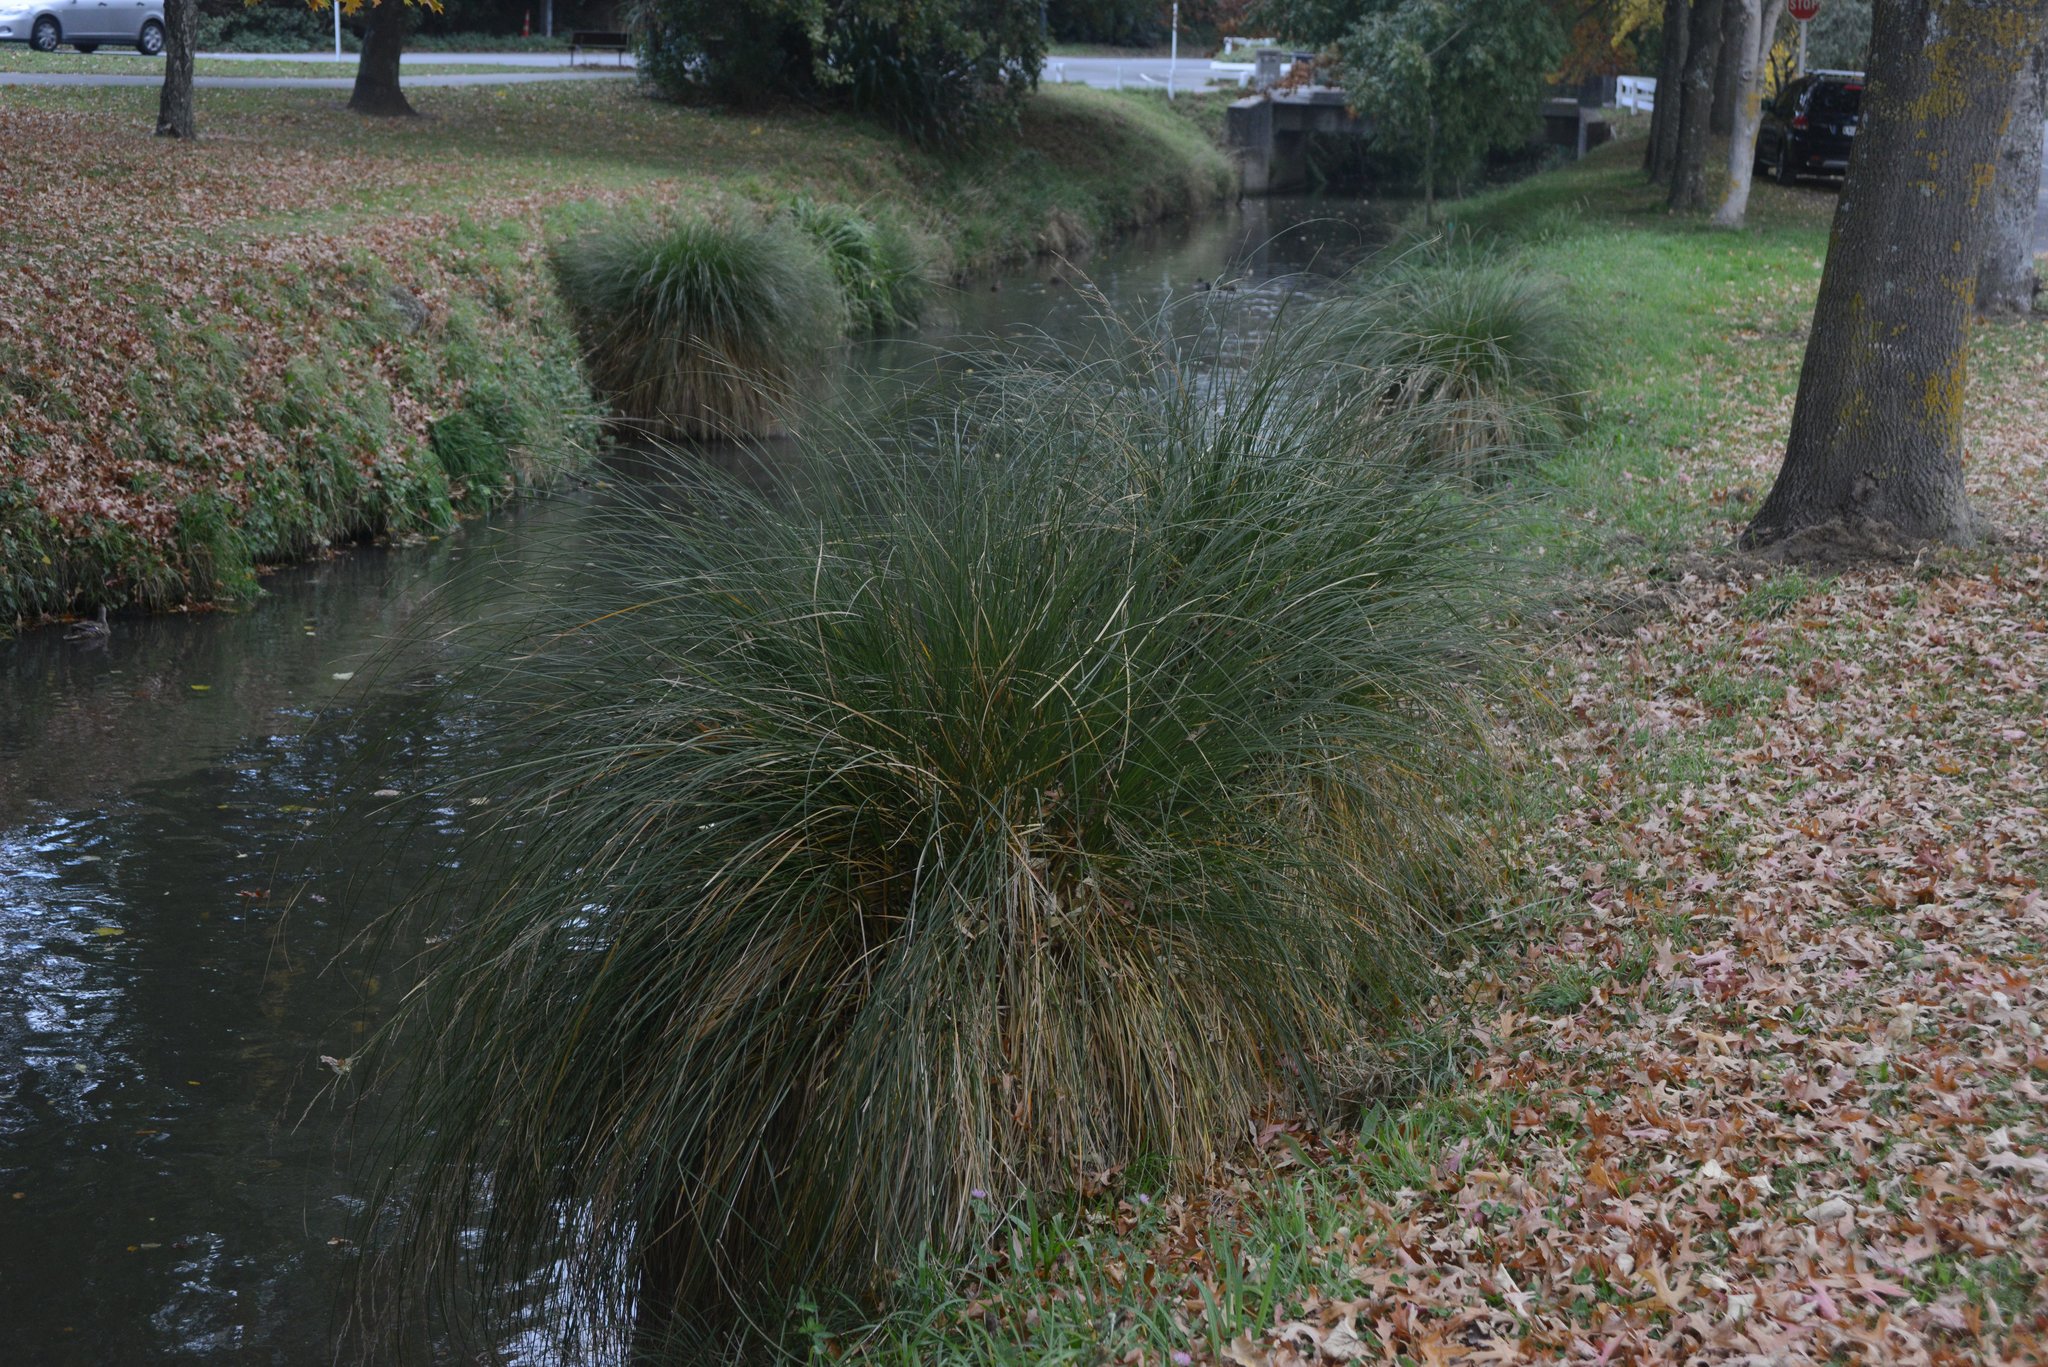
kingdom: Plantae
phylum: Tracheophyta
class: Liliopsida
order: Poales
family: Cyperaceae
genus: Carex
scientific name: Carex secta
